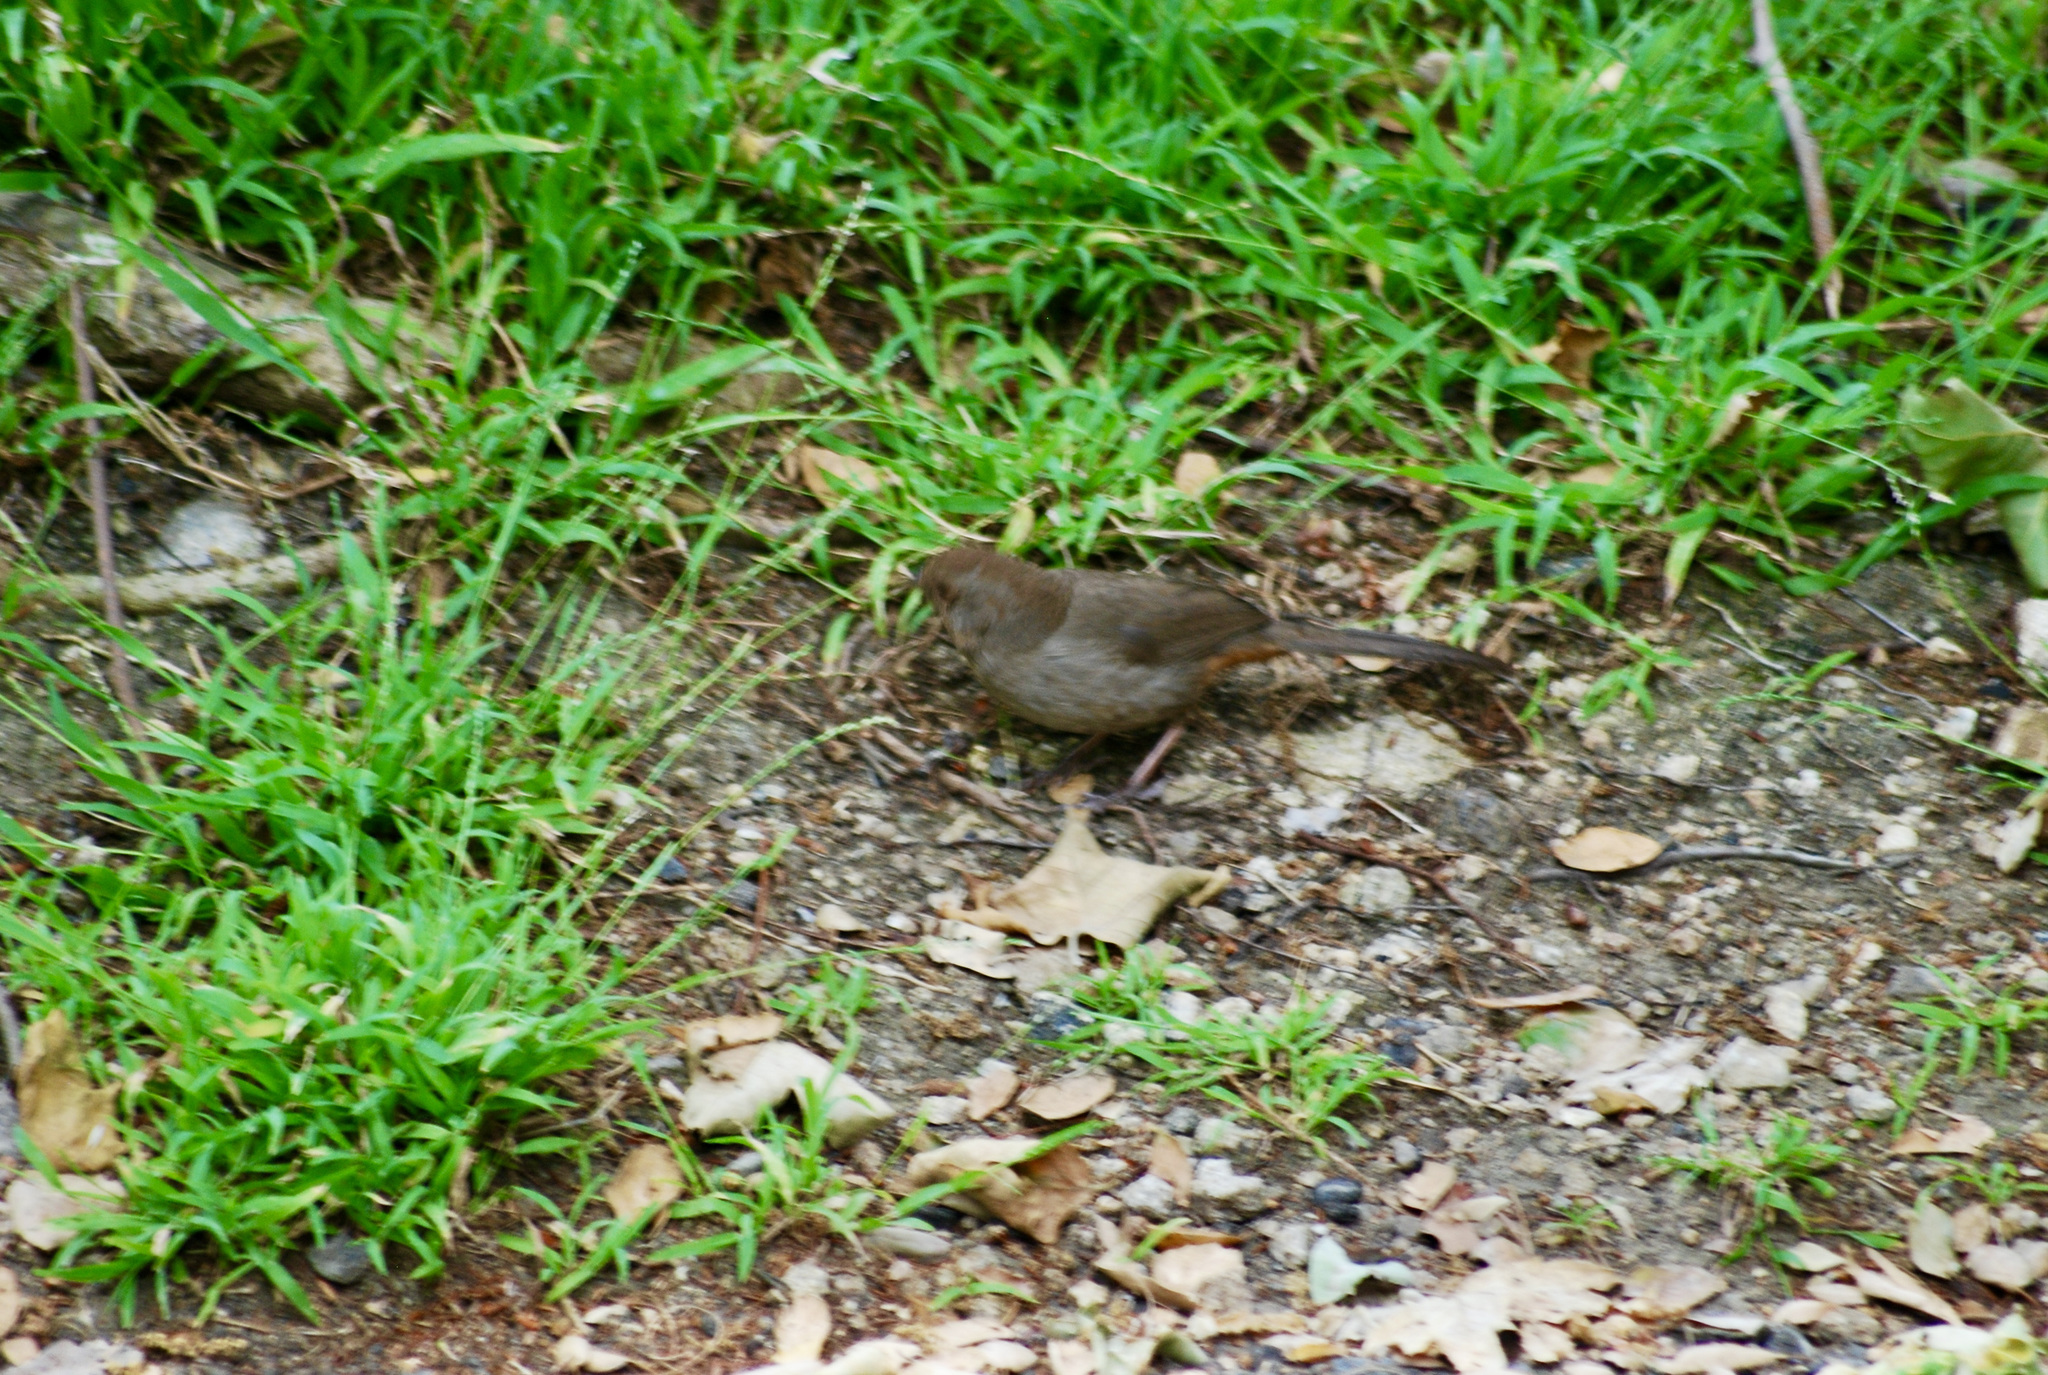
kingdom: Animalia
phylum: Chordata
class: Aves
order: Passeriformes
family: Passerellidae
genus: Melozone
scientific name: Melozone crissalis
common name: California towhee
